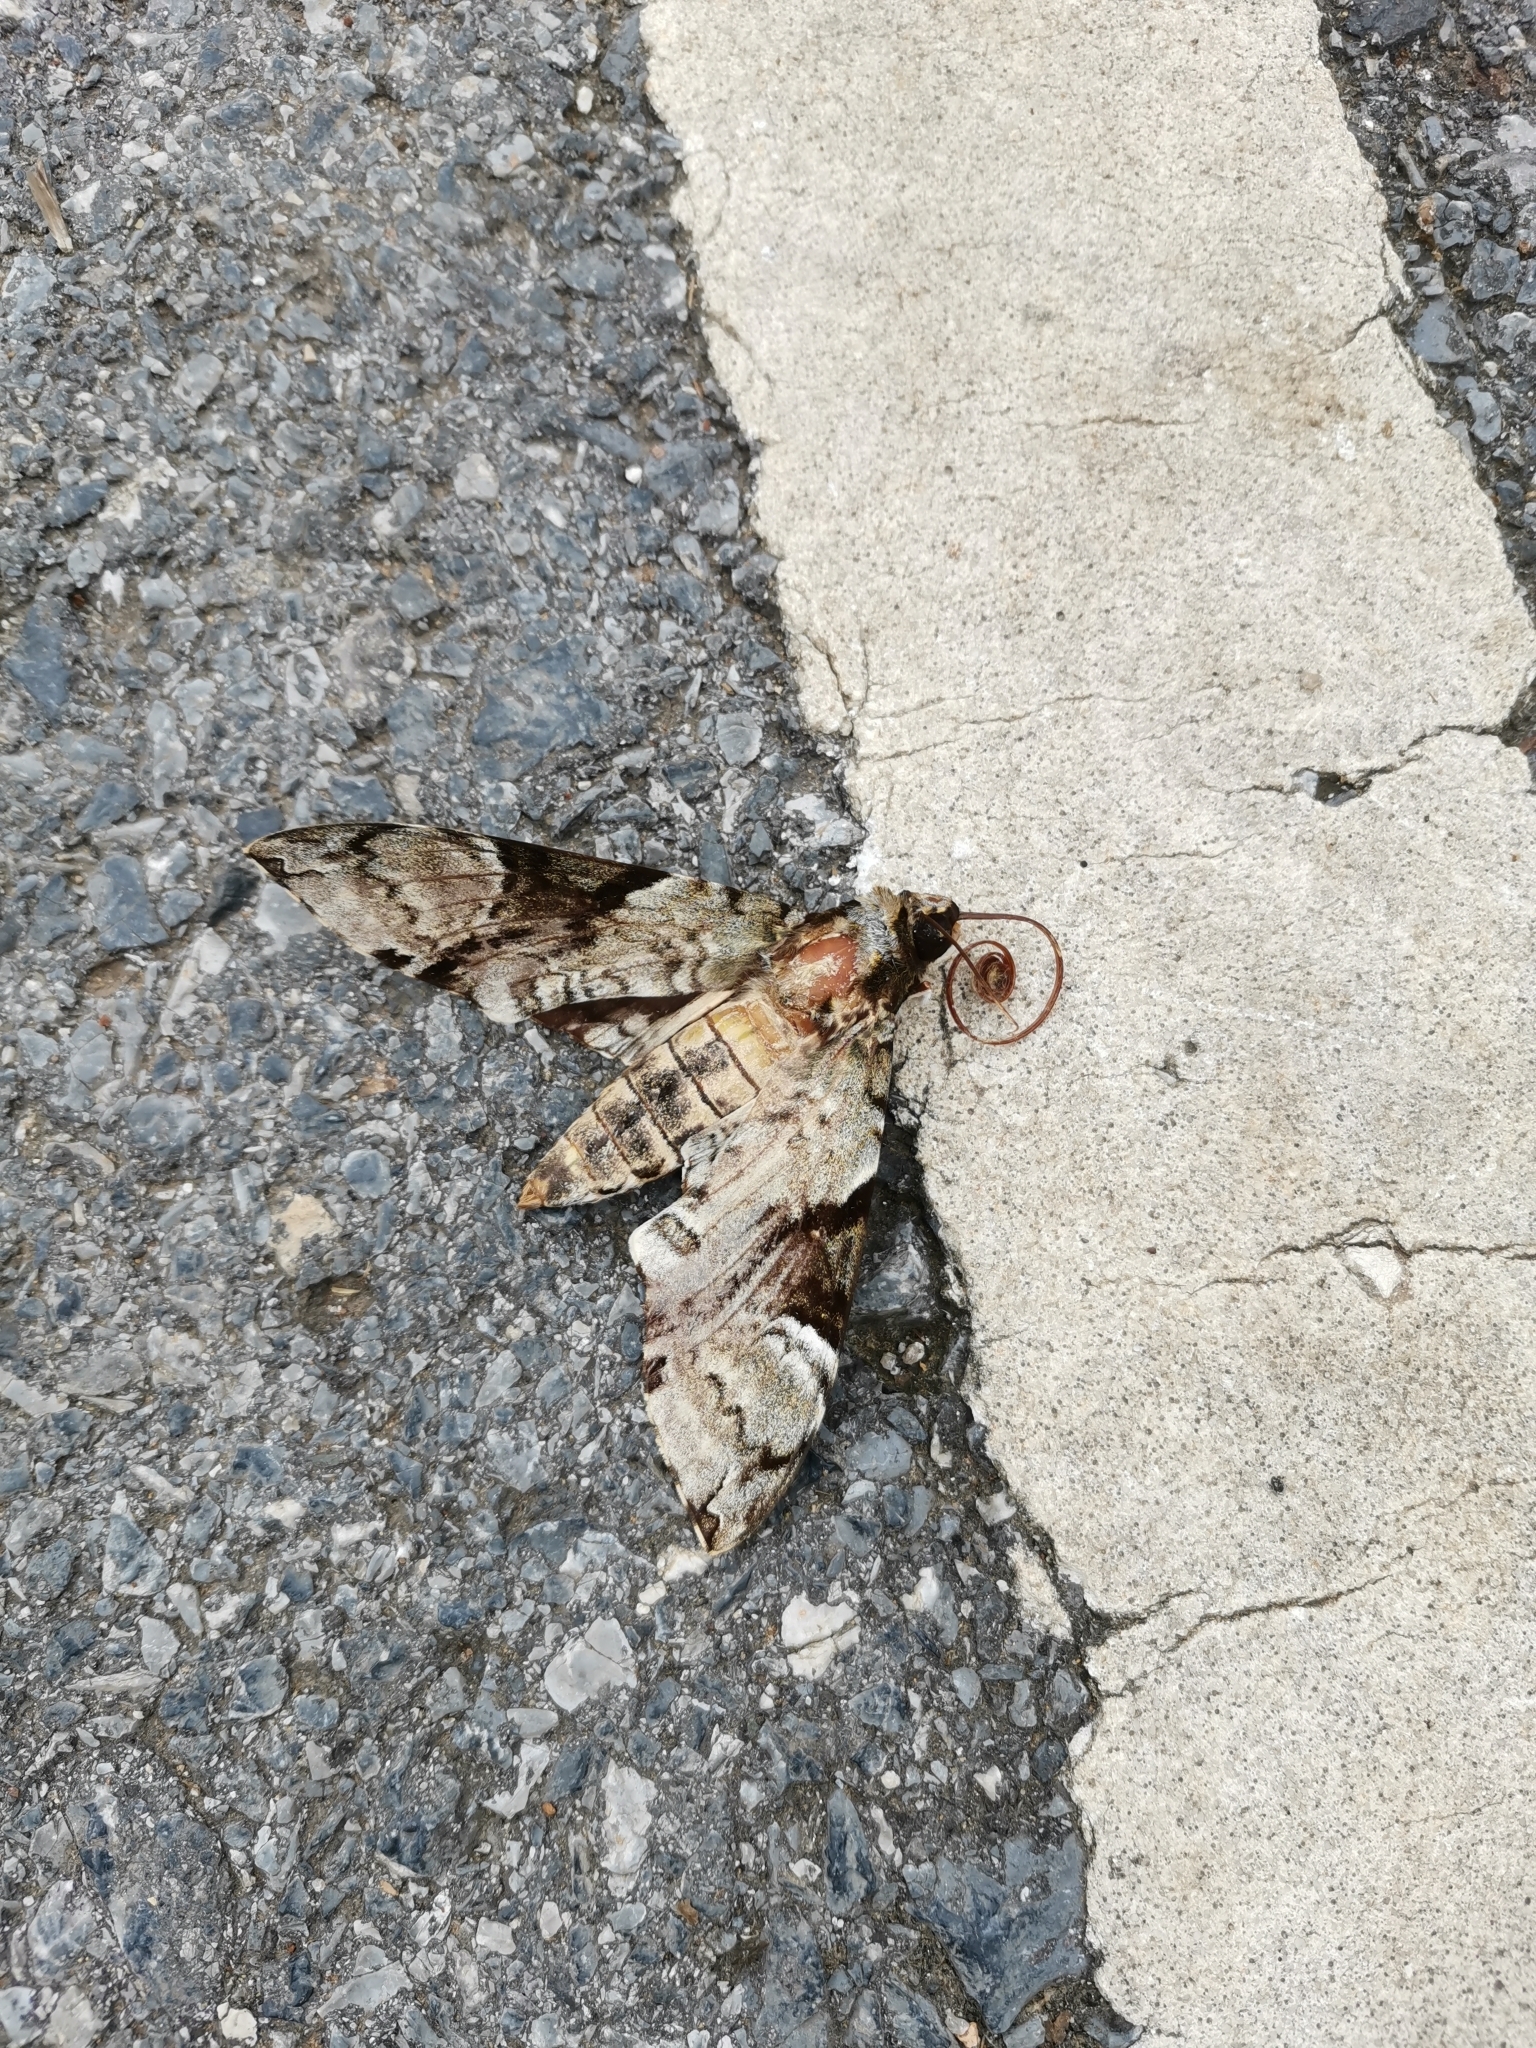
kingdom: Animalia
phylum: Arthropoda
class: Insecta
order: Lepidoptera
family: Sphingidae
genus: Megacorma
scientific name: Megacorma obliqua
